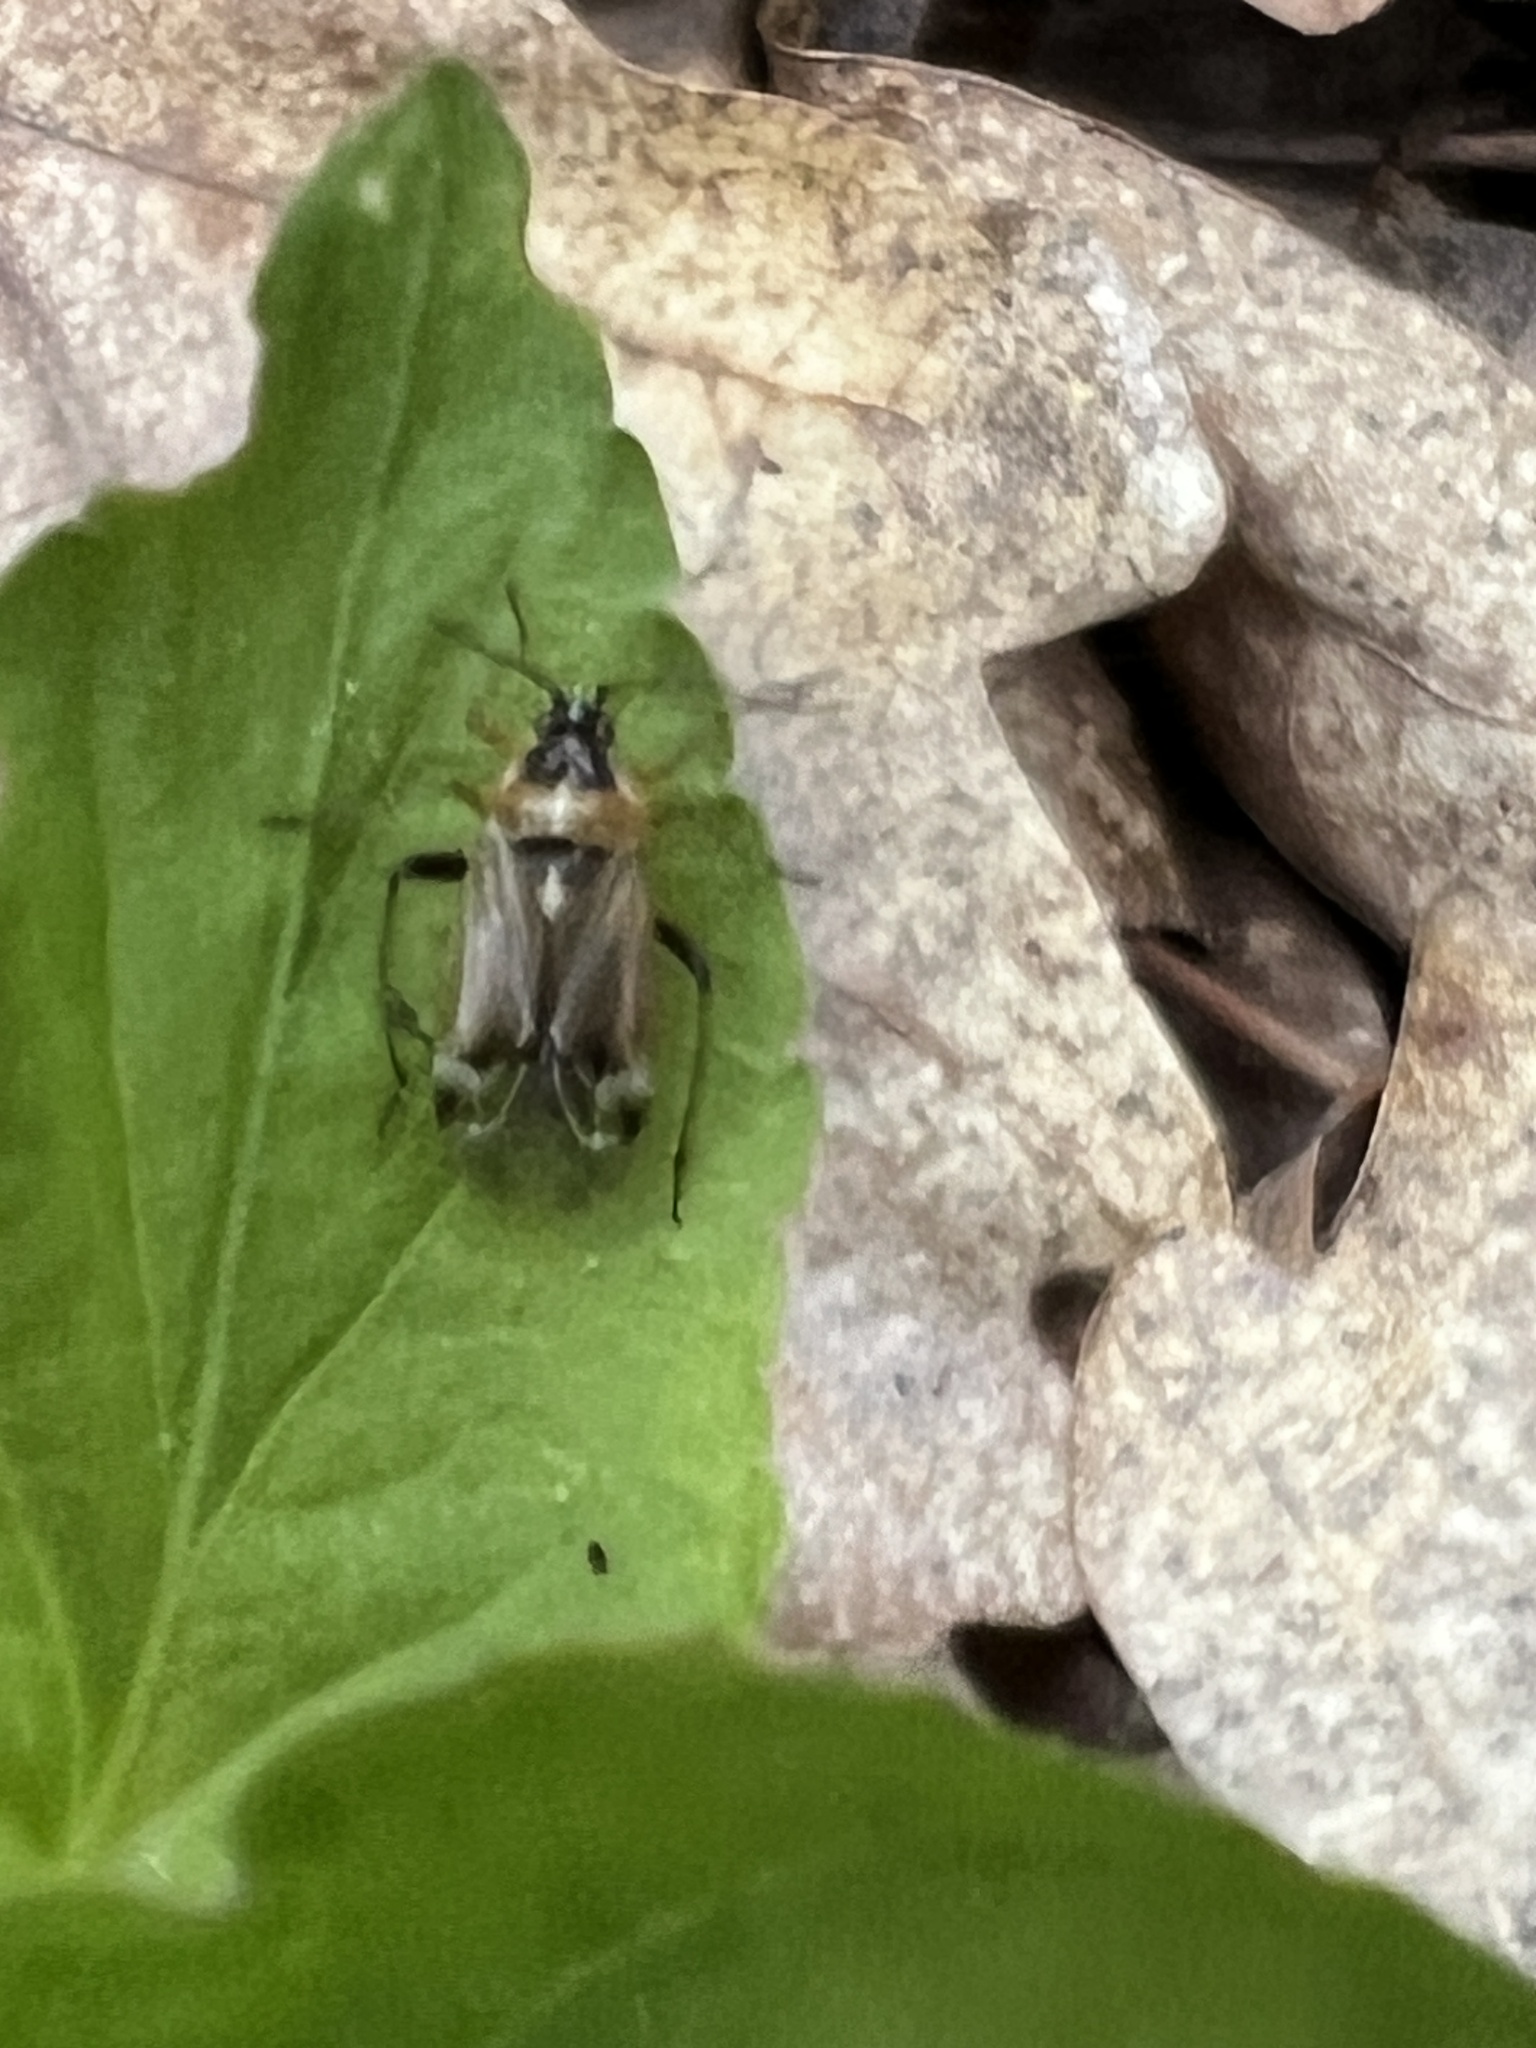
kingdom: Animalia
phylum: Arthropoda
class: Insecta
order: Hemiptera
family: Miridae
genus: Harpocera
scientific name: Harpocera thoracica
